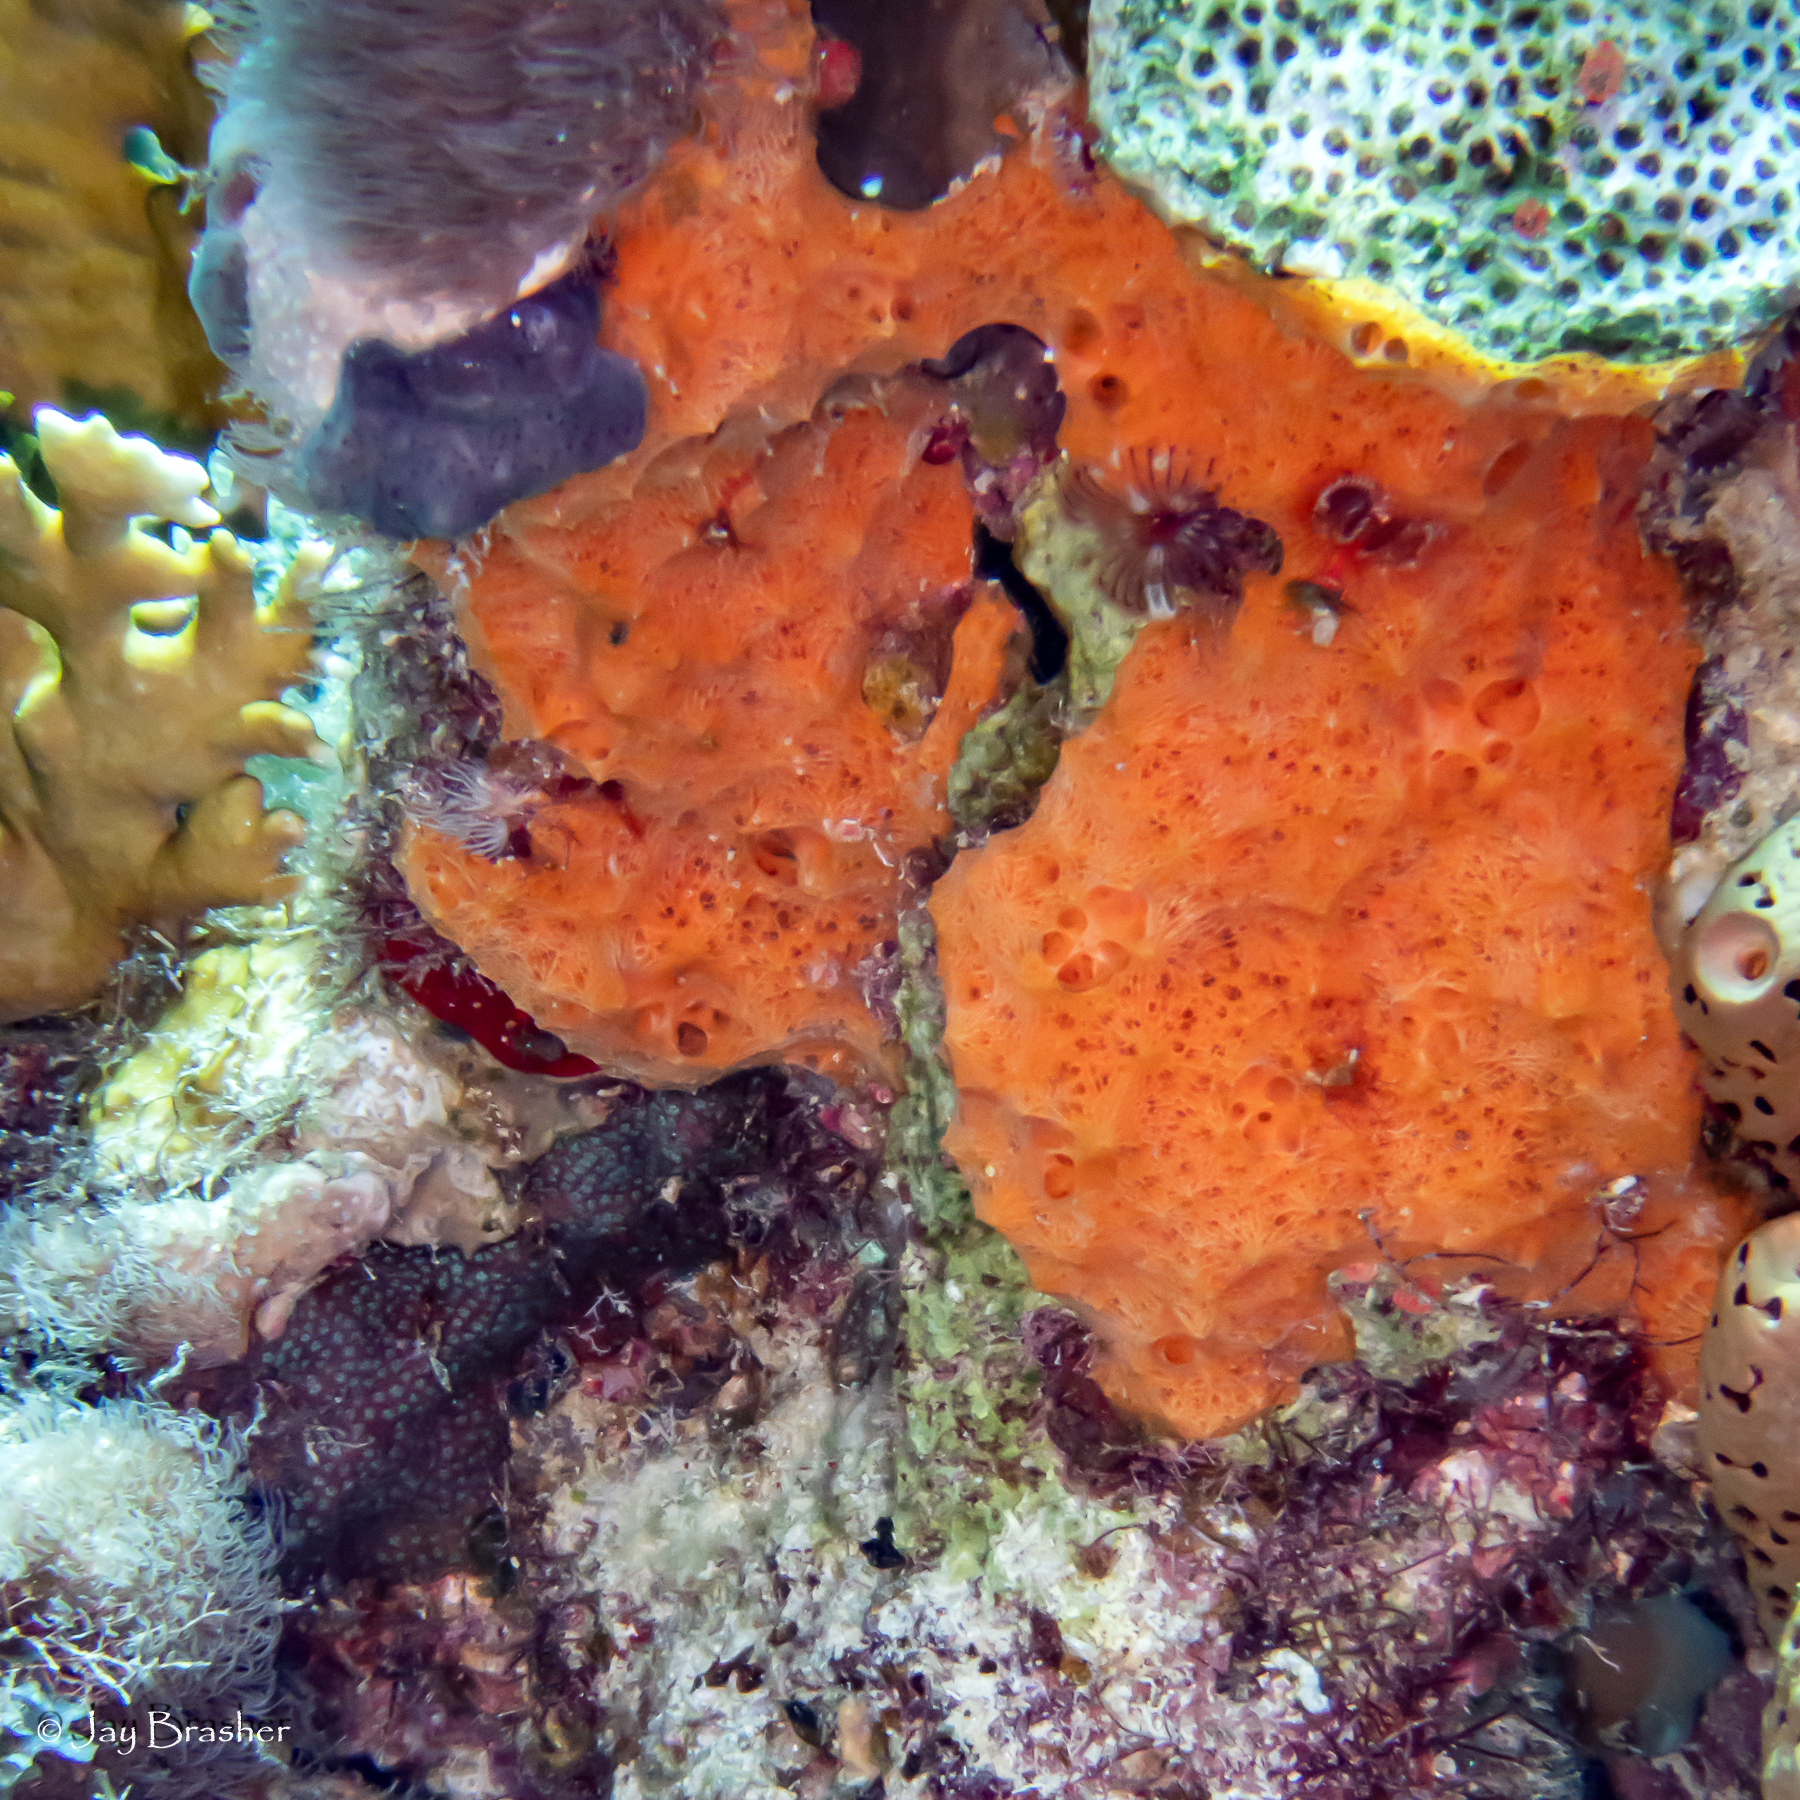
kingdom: Animalia
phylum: Porifera
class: Demospongiae
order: Scopalinida
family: Scopalinidae
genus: Scopalina
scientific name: Scopalina ruetzleri
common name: Orange lumpy encrusting sponge
